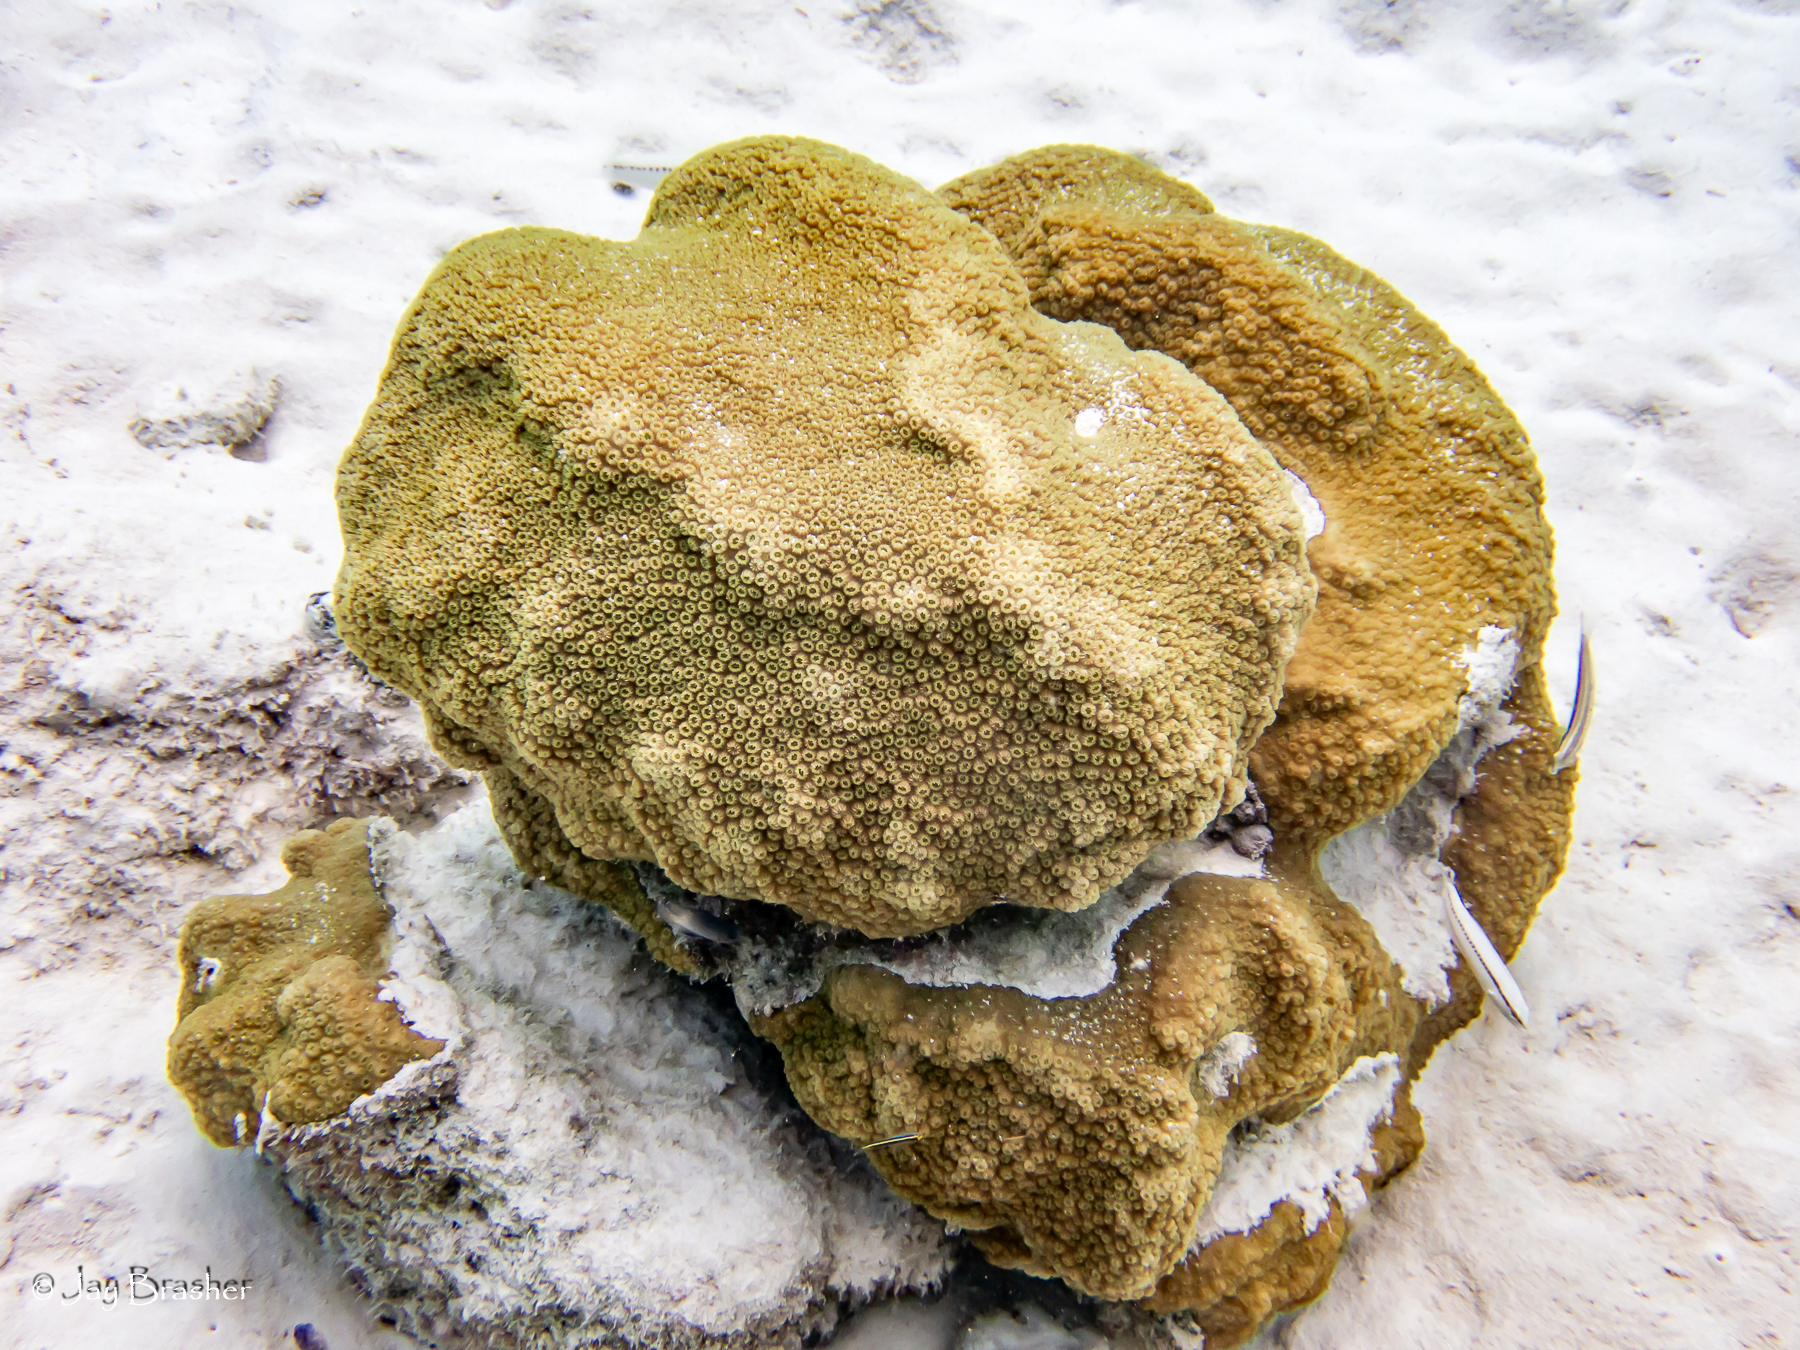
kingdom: Animalia
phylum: Cnidaria
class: Anthozoa
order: Scleractinia
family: Merulinidae
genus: Orbicella
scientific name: Orbicella faveolata
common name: Mountainous star coral
